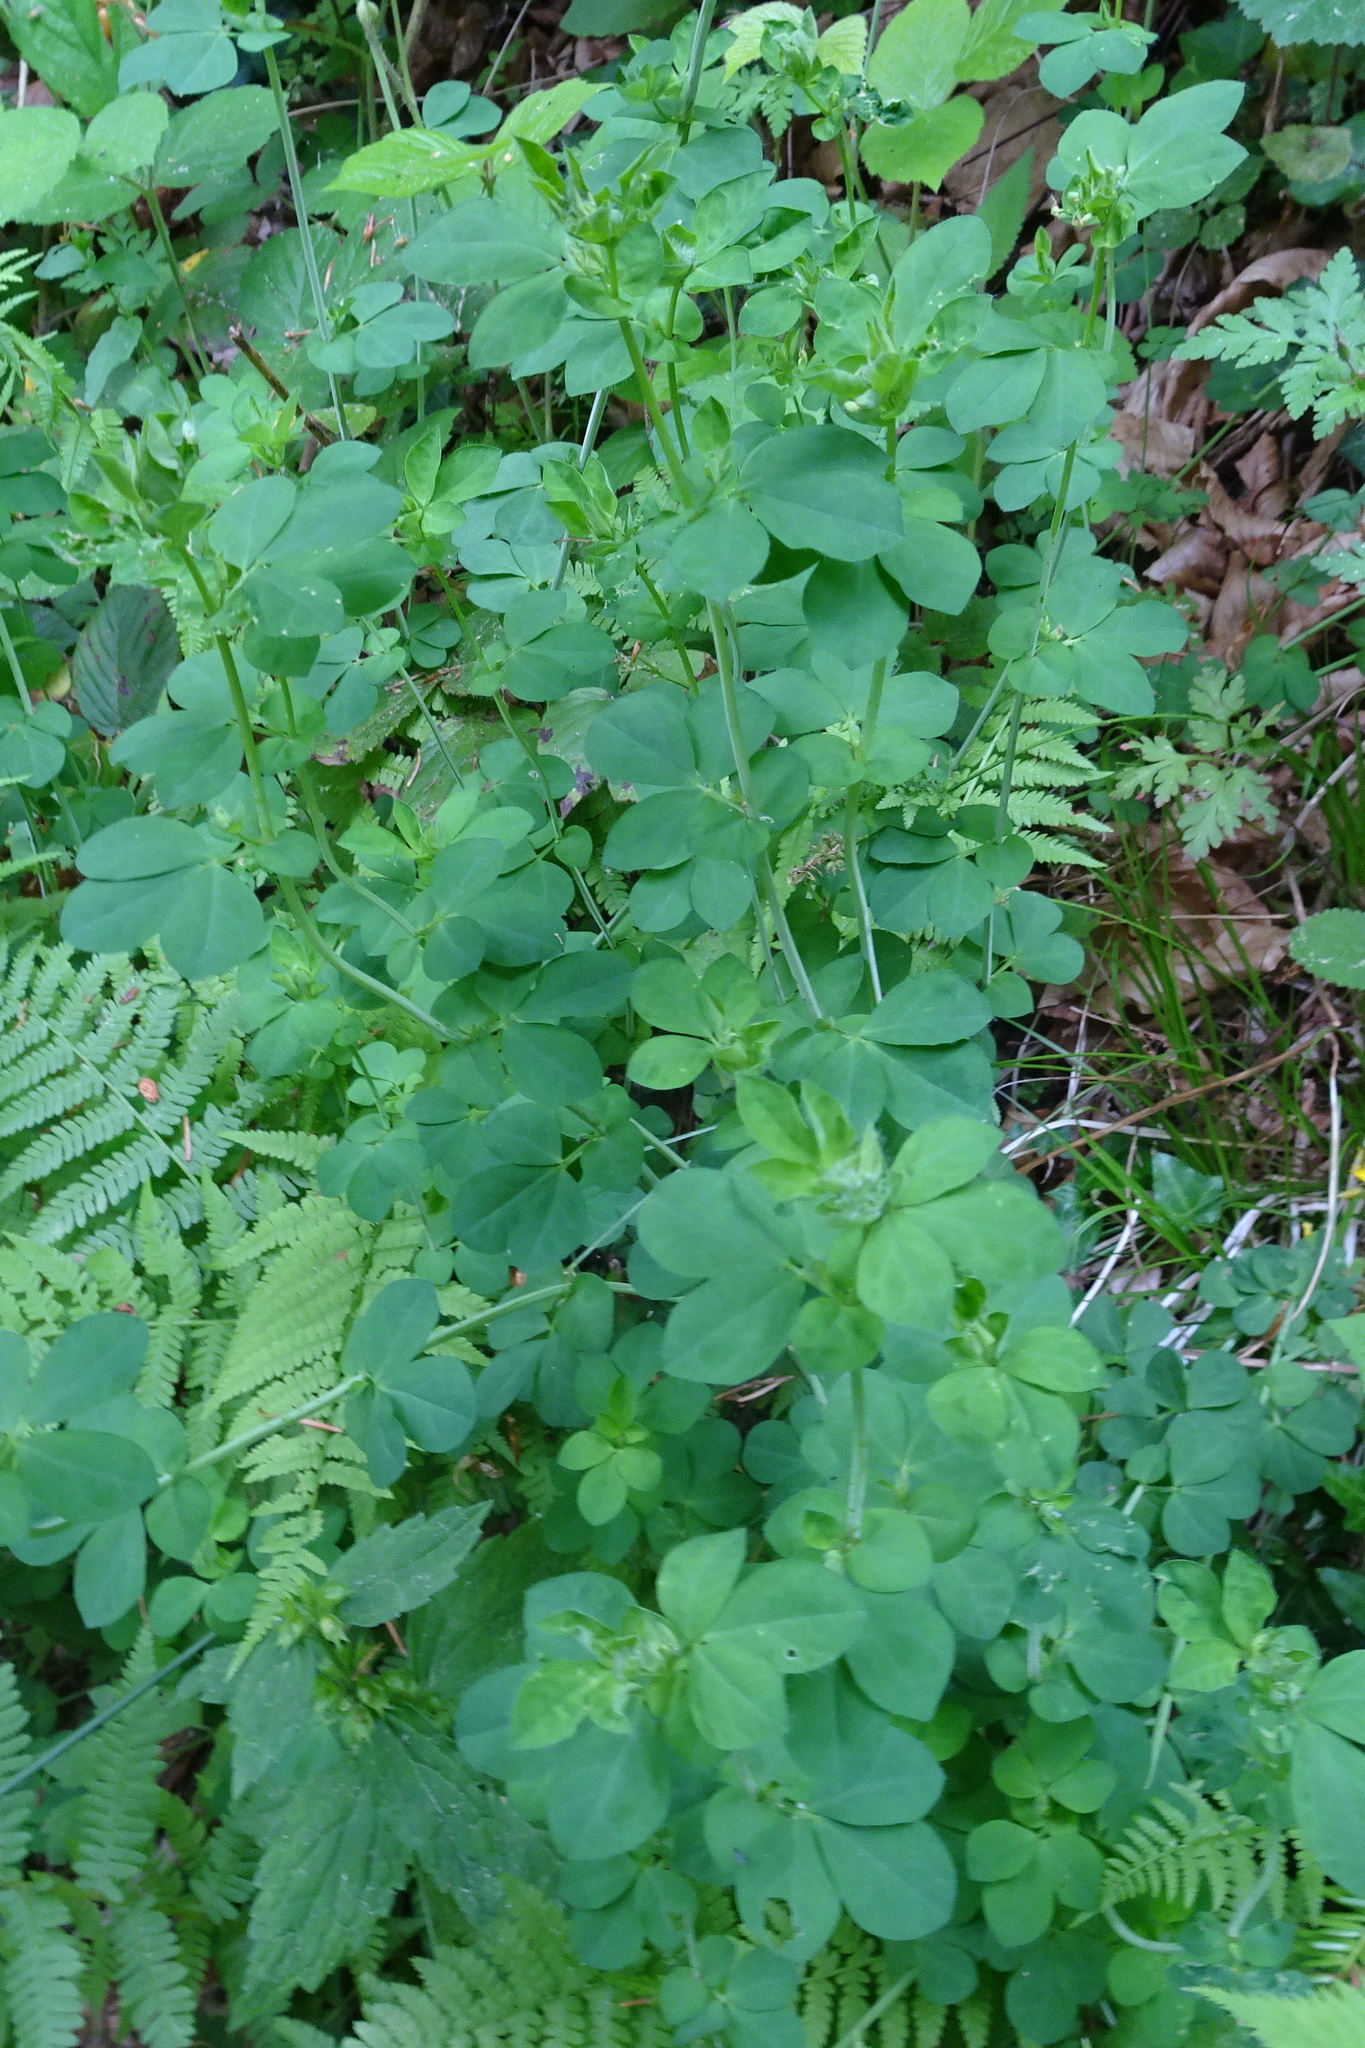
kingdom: Plantae
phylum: Tracheophyta
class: Magnoliopsida
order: Fabales
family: Fabaceae
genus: Lotus
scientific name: Lotus pedunculatus
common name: Greater birdsfoot-trefoil
